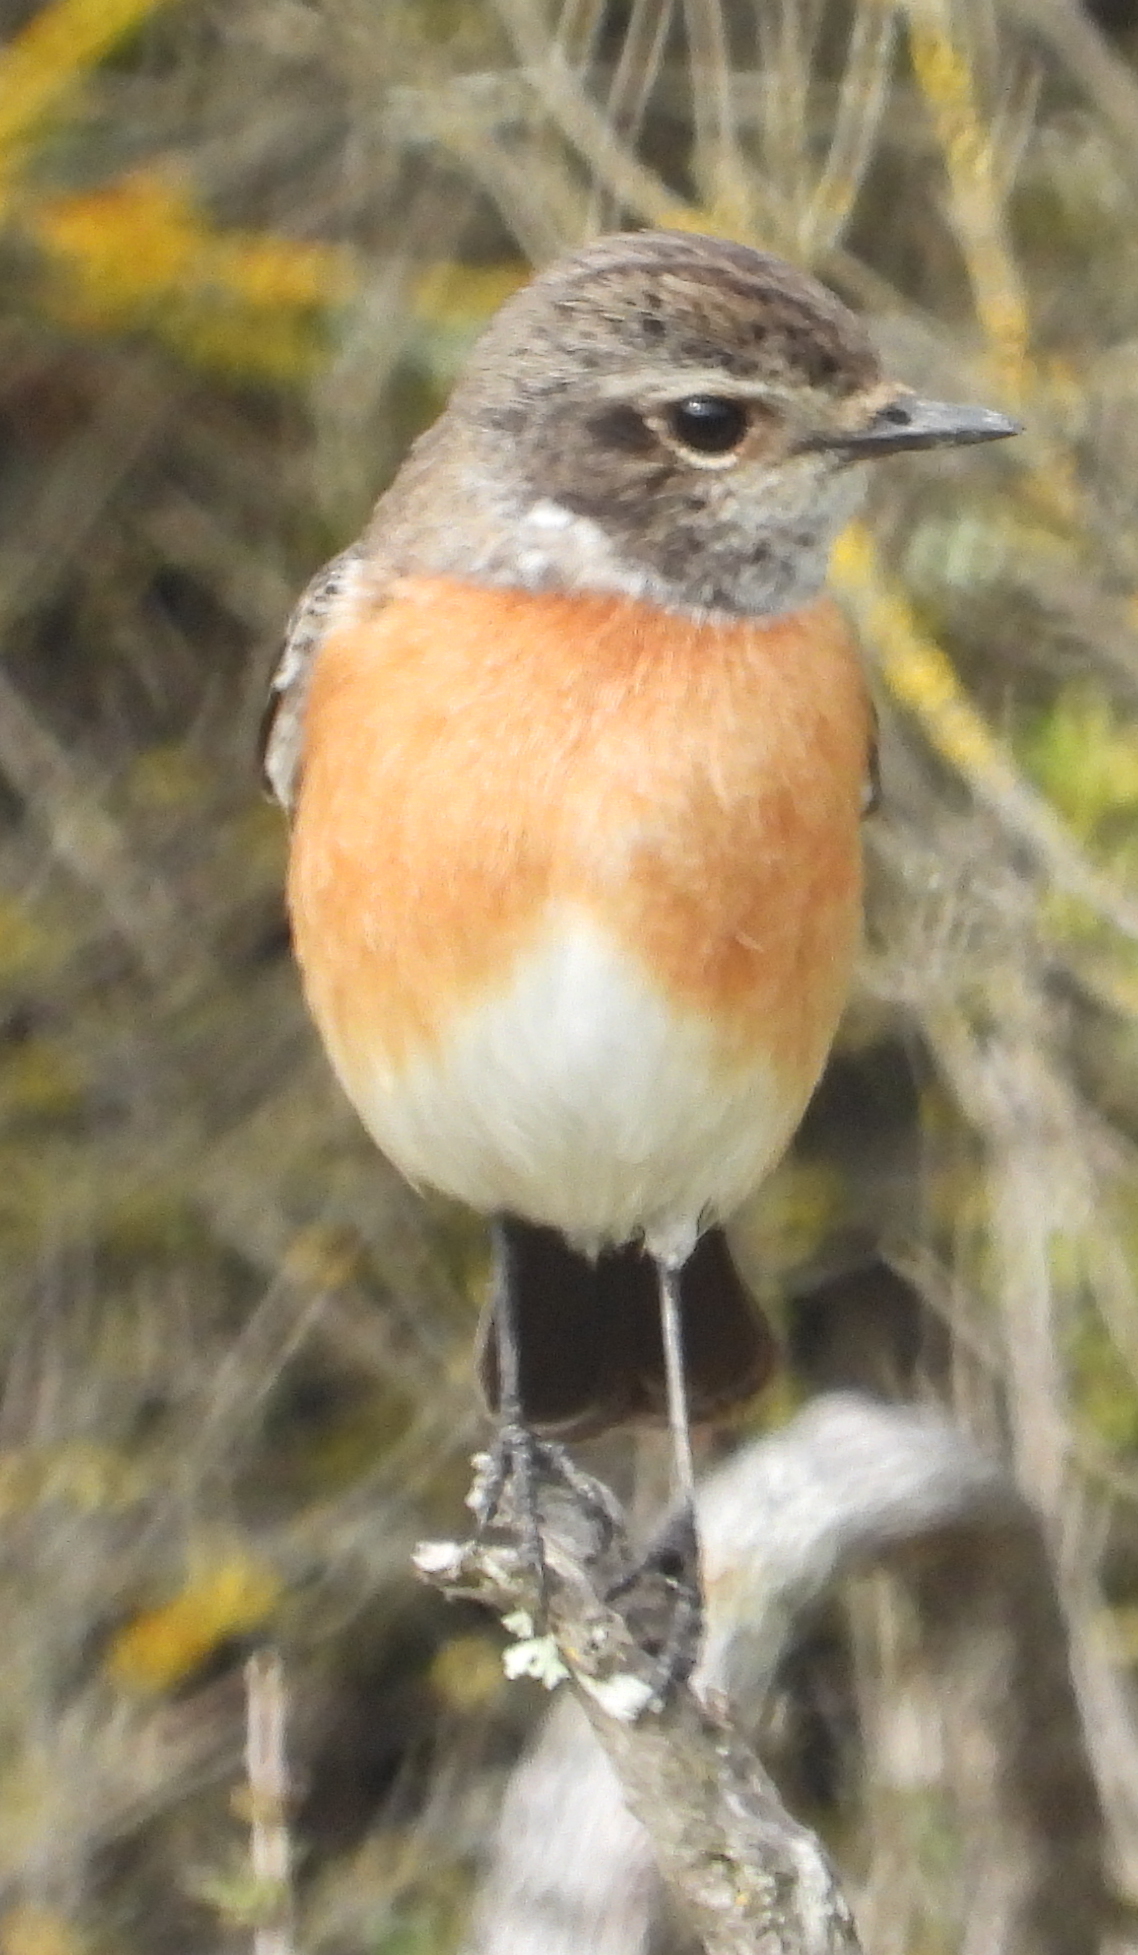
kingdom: Animalia
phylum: Chordata
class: Aves
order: Passeriformes
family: Muscicapidae
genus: Saxicola
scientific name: Saxicola torquatus
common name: African stonechat
